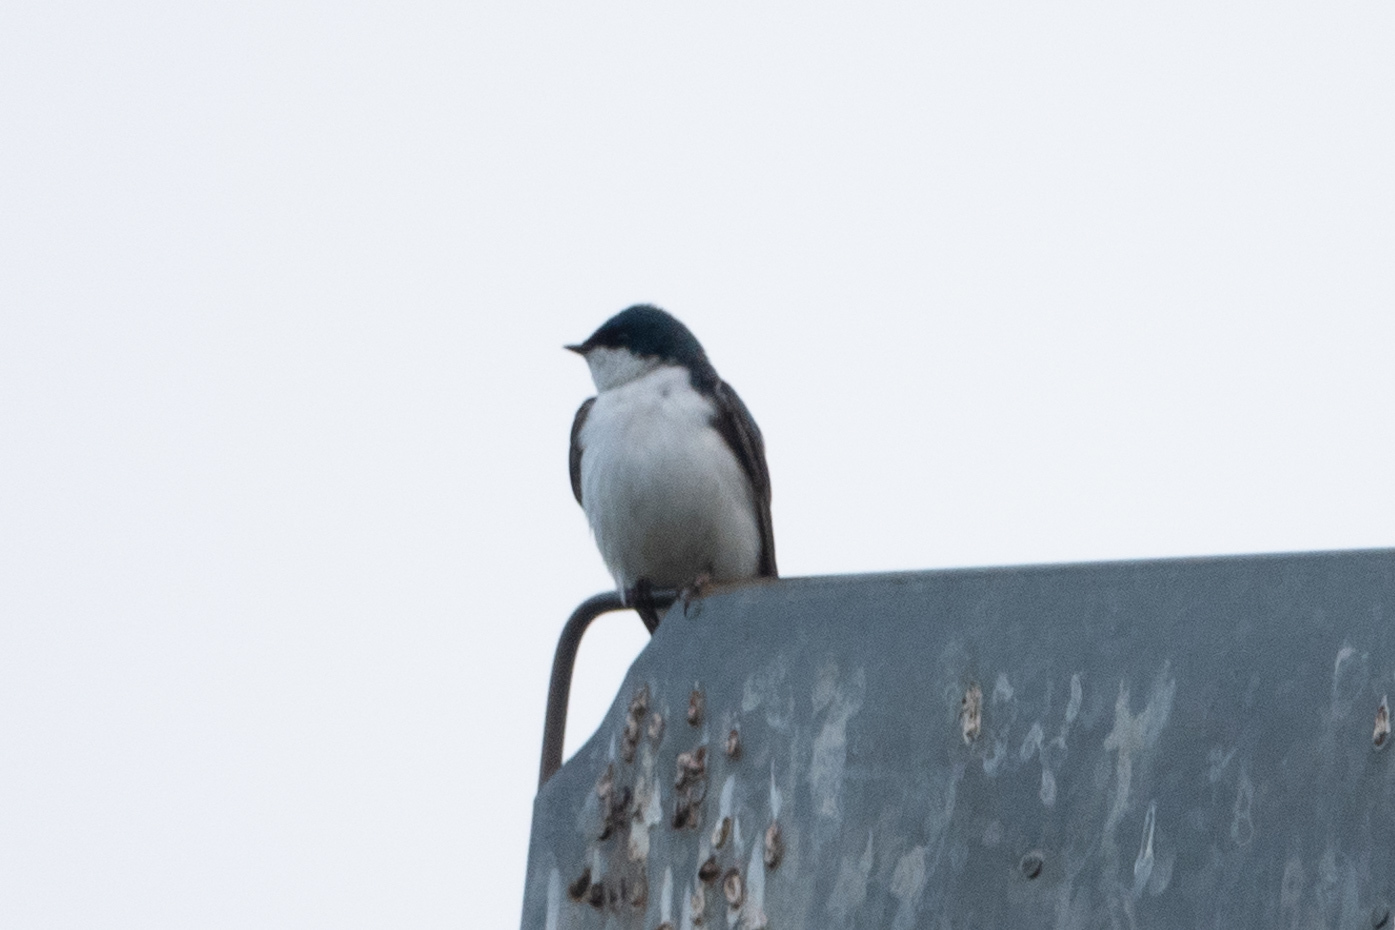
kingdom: Animalia
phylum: Chordata
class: Aves
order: Passeriformes
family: Hirundinidae
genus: Tachycineta
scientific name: Tachycineta bicolor
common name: Tree swallow
